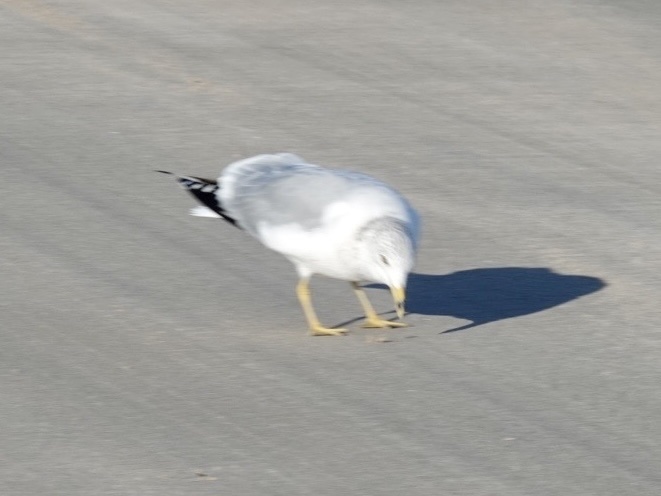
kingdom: Animalia
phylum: Chordata
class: Aves
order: Charadriiformes
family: Laridae
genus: Larus
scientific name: Larus delawarensis
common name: Ring-billed gull
